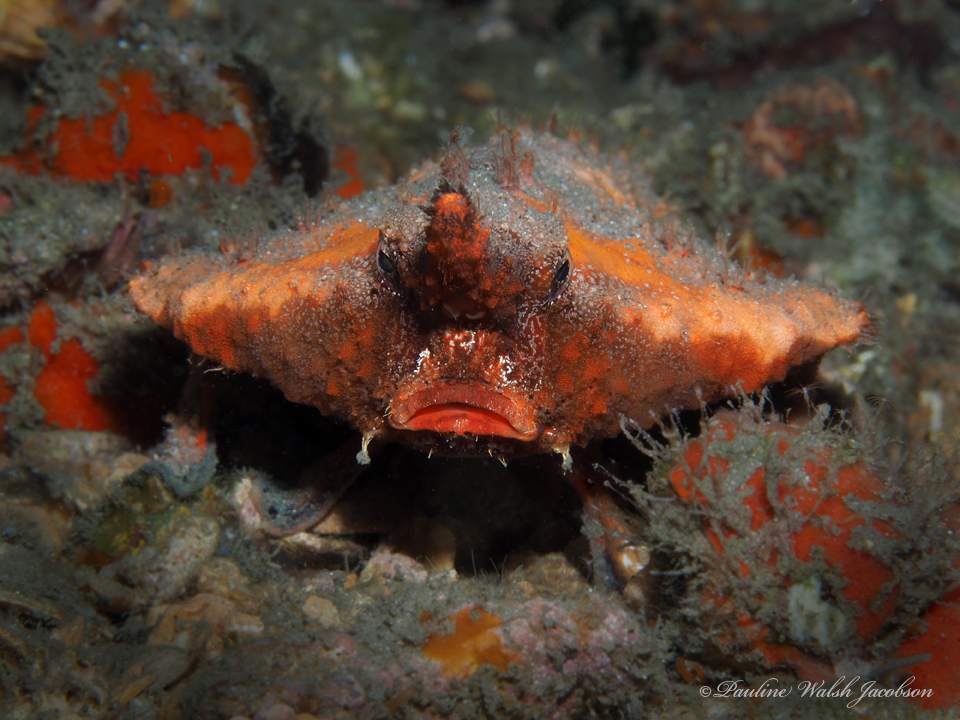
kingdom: Animalia
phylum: Chordata
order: Lophiiformes
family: Ogcocephalidae
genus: Ogcocephalus
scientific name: Ogcocephalus corniger
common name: Longnose batfish
